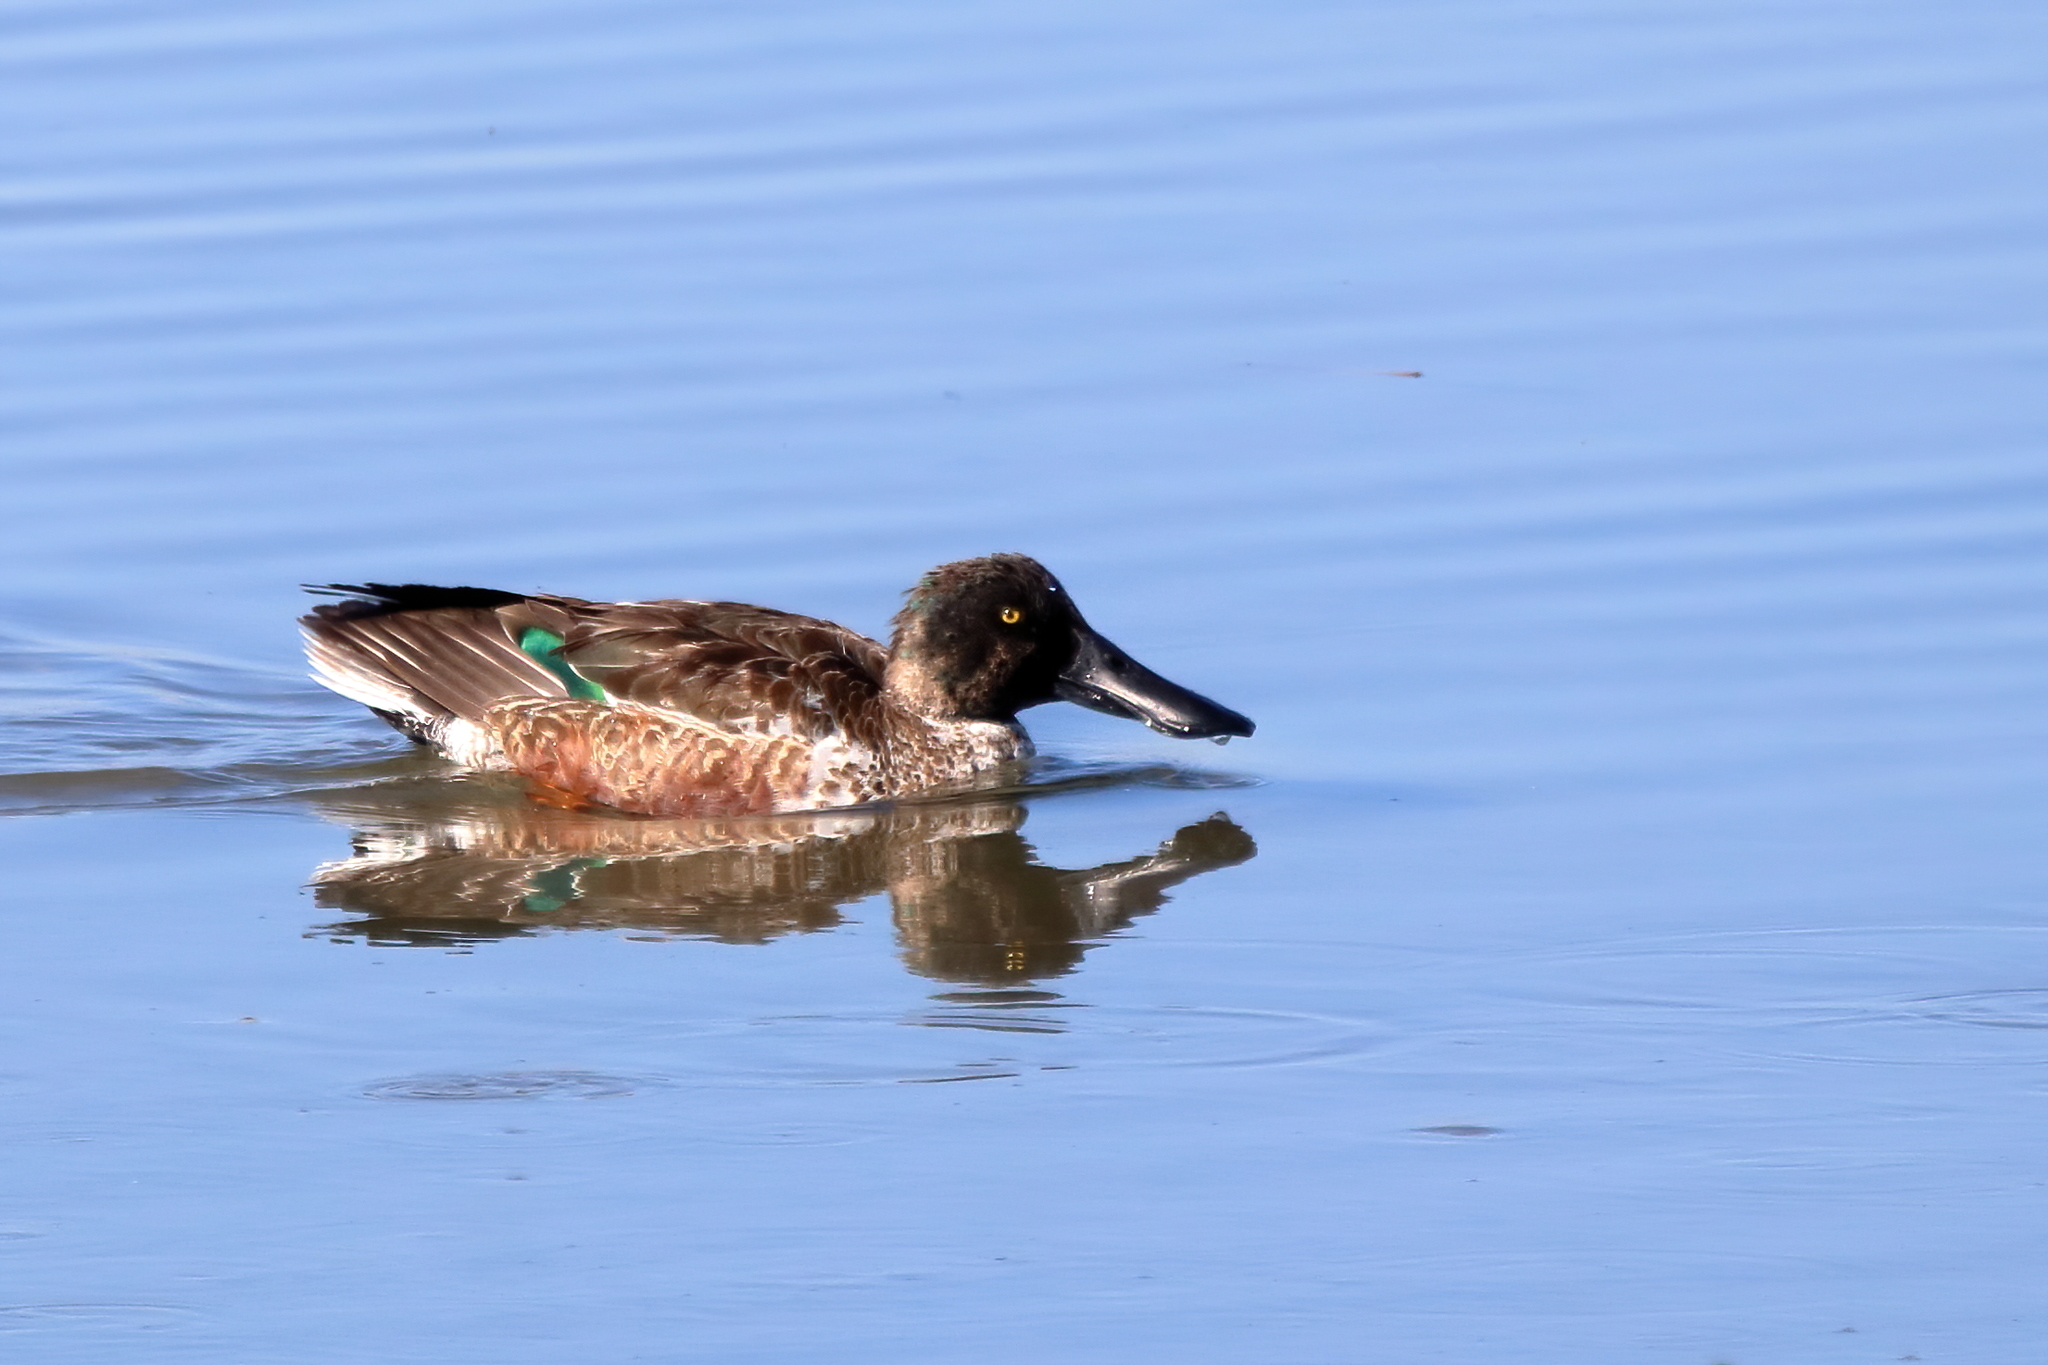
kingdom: Animalia
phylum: Chordata
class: Aves
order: Anseriformes
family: Anatidae
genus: Spatula
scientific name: Spatula clypeata
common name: Northern shoveler
